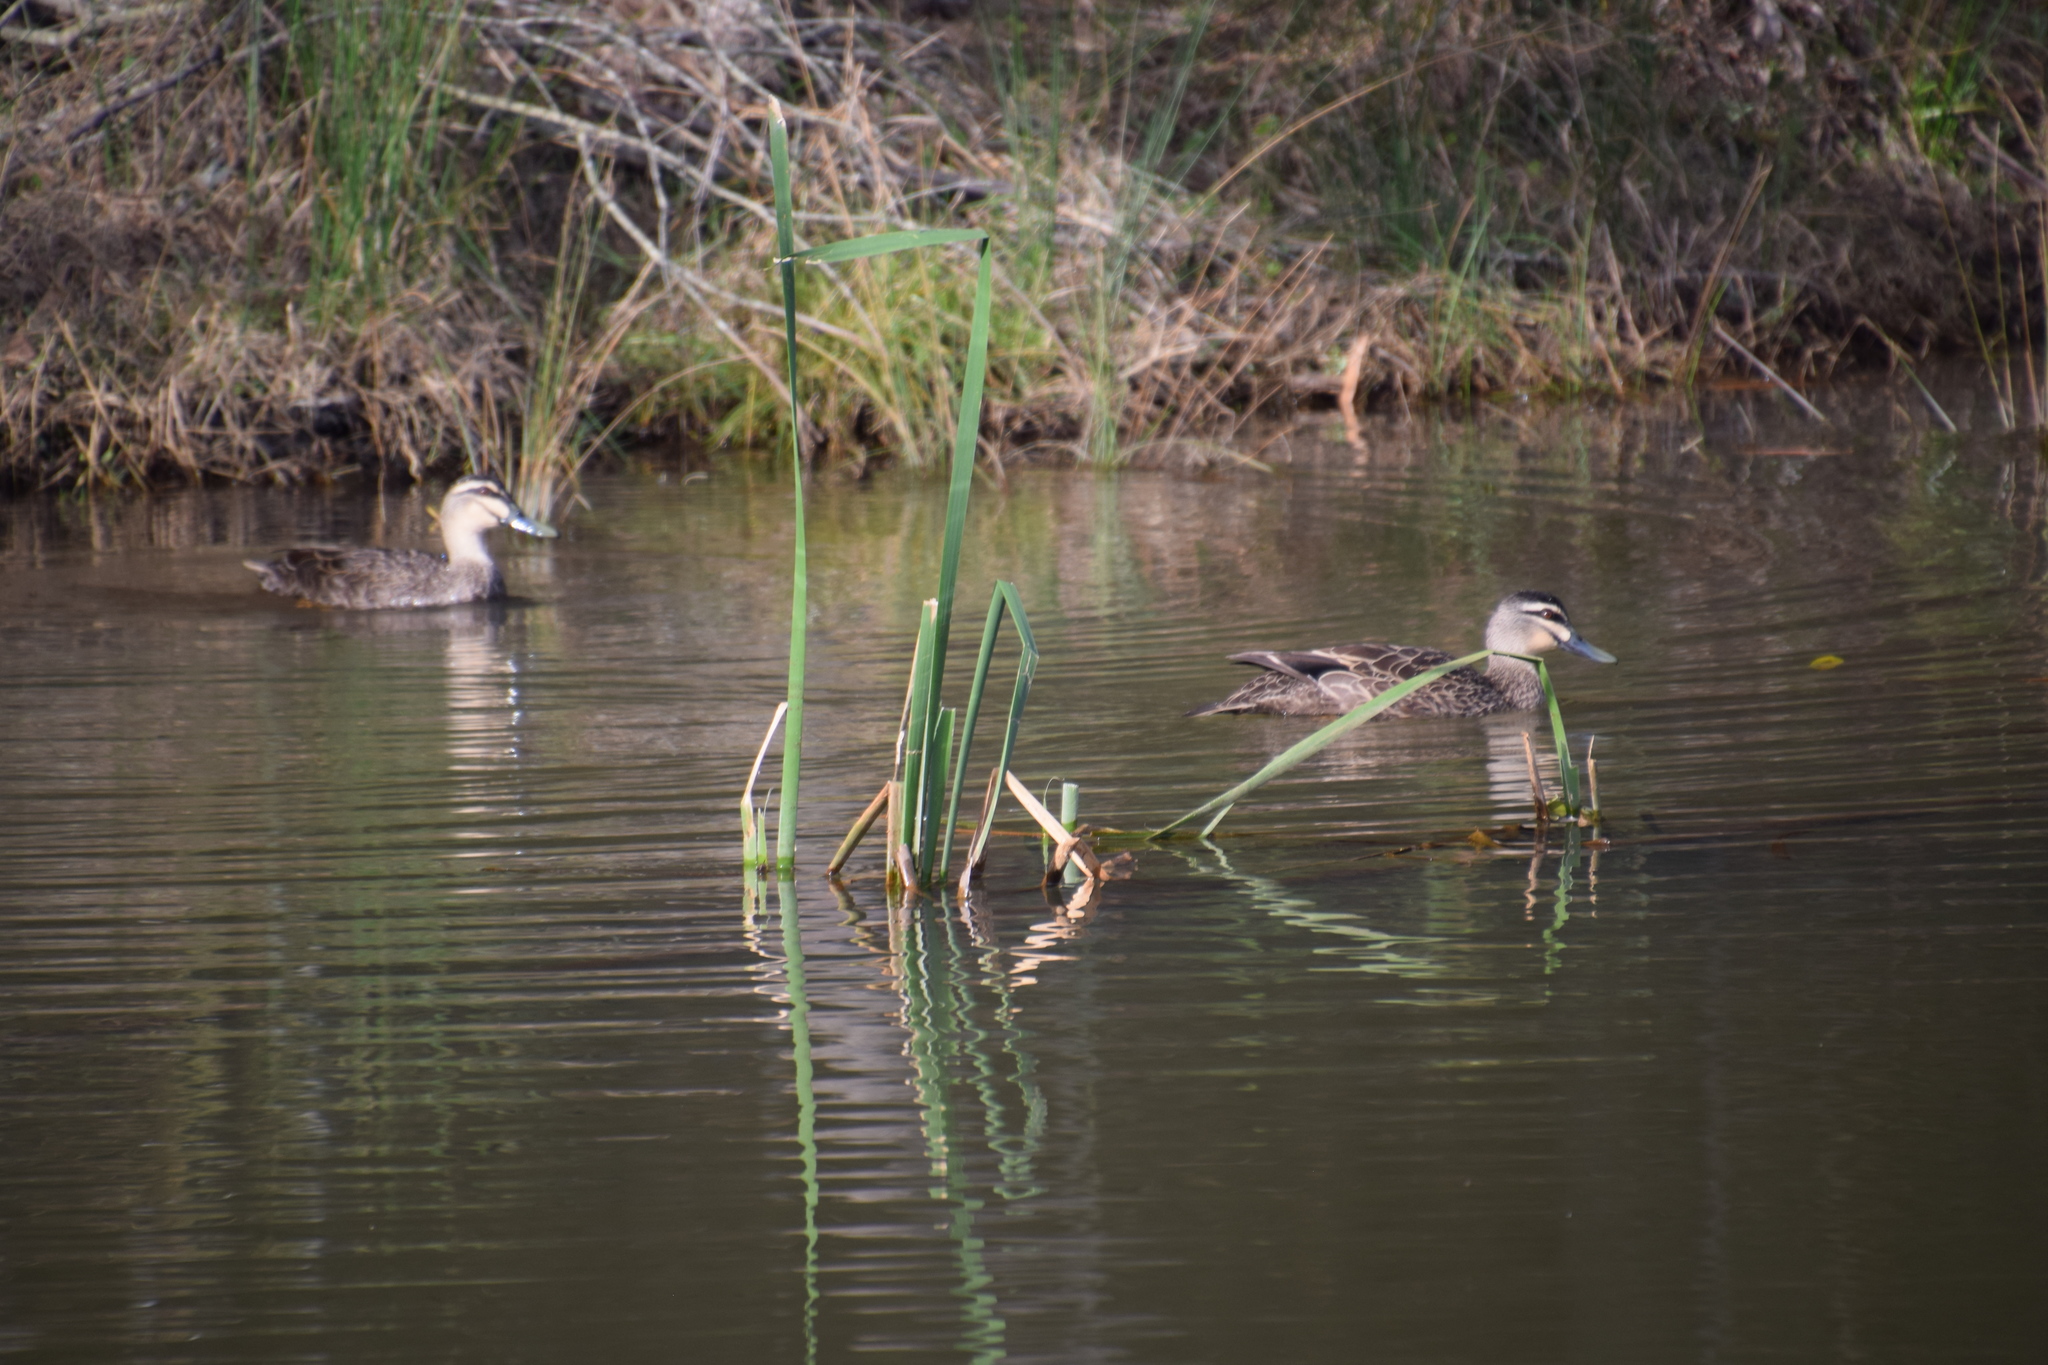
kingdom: Animalia
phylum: Chordata
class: Aves
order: Anseriformes
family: Anatidae
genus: Anas
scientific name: Anas superciliosa
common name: Pacific black duck
